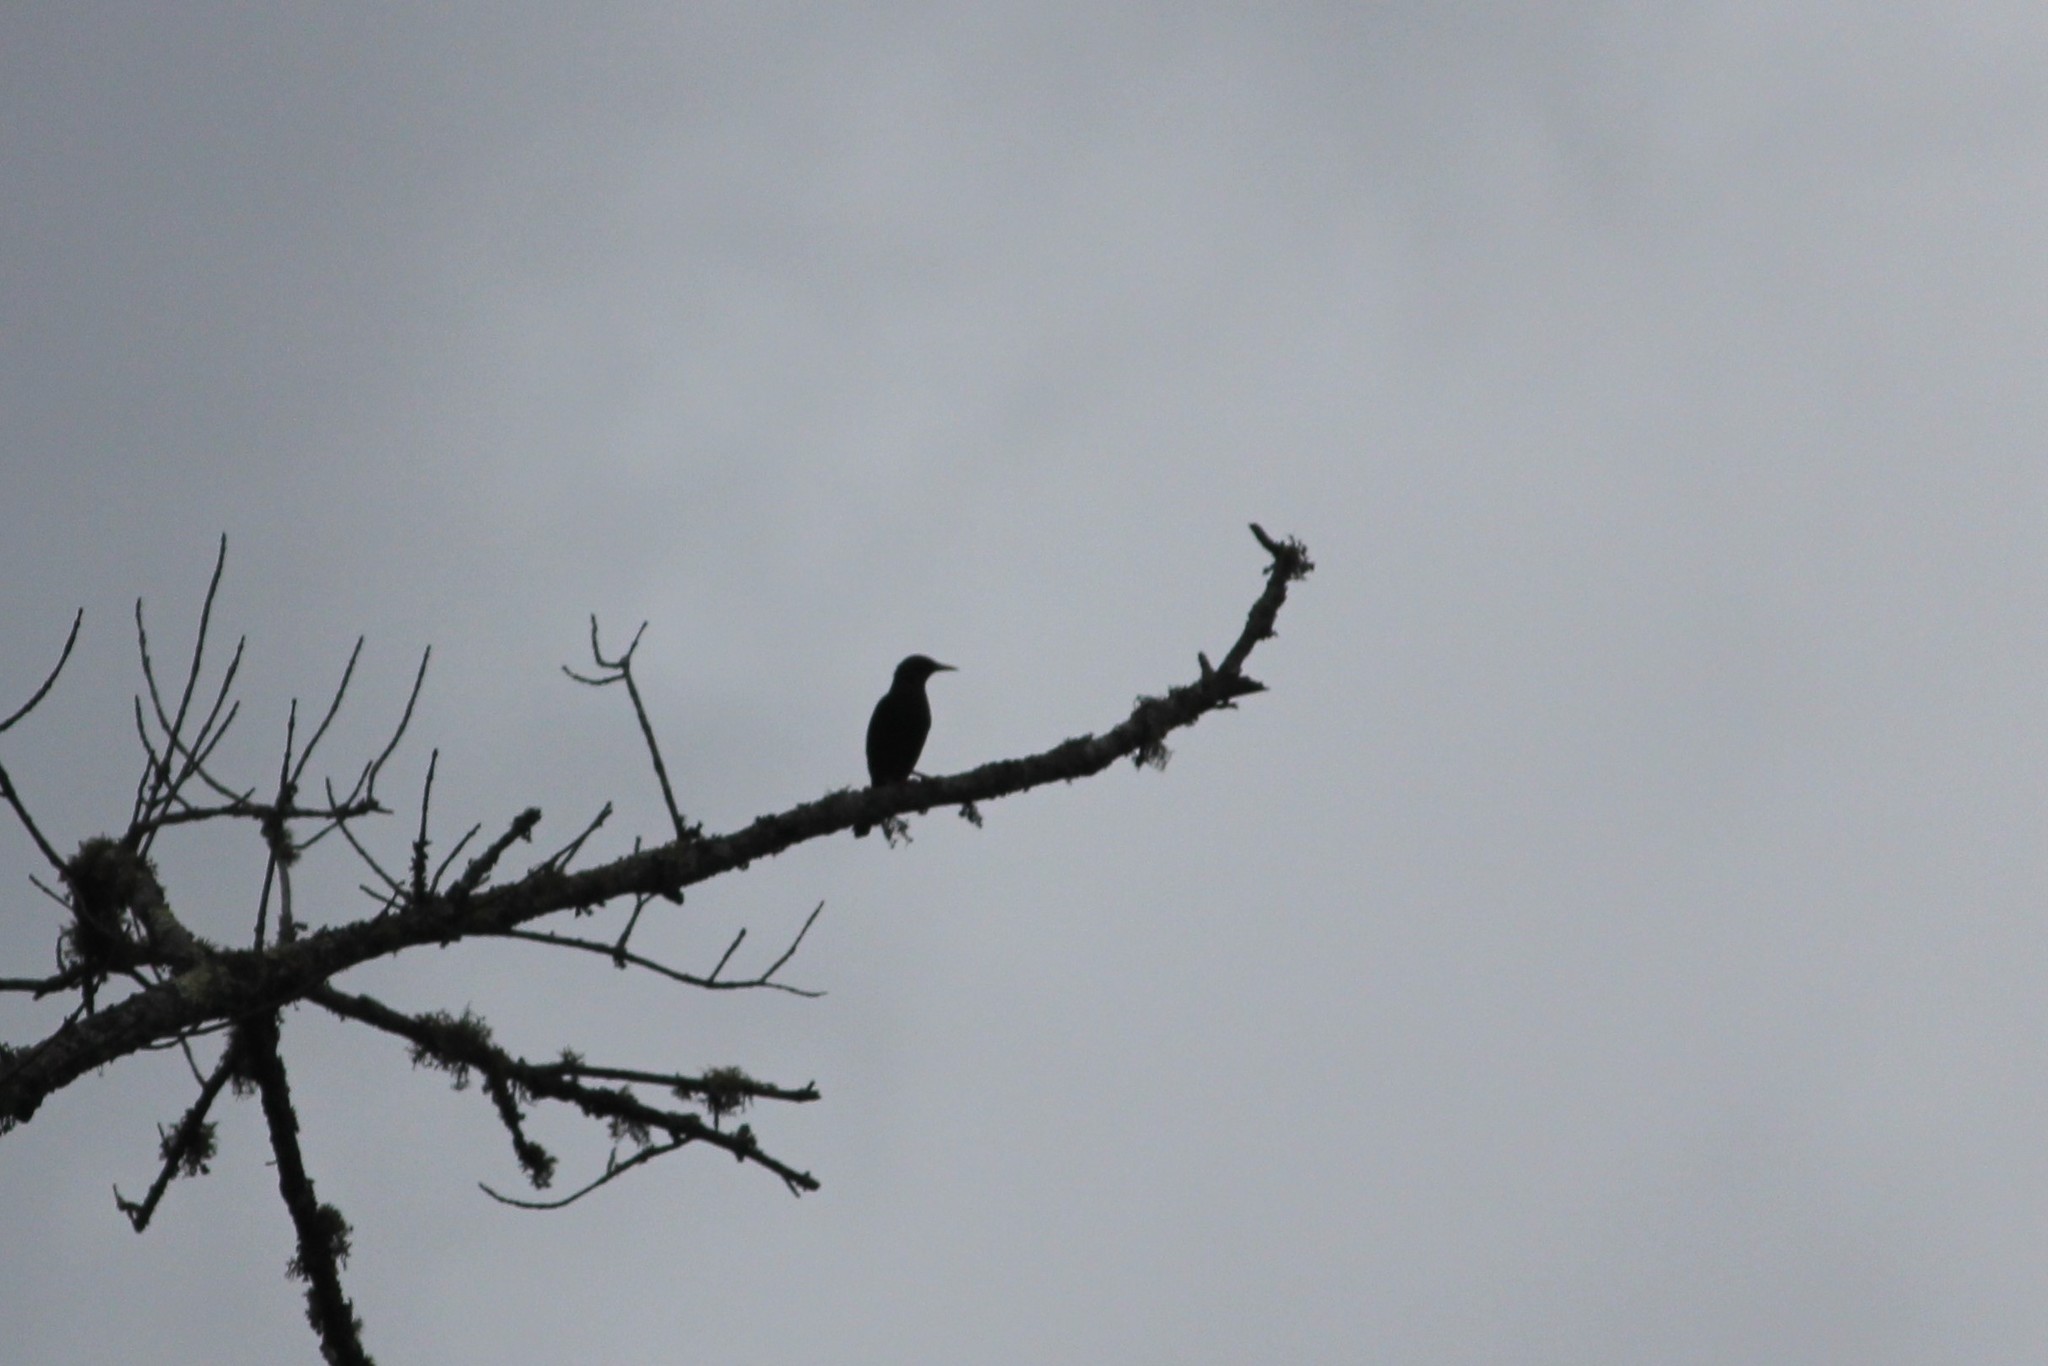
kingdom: Animalia
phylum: Chordata
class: Aves
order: Passeriformes
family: Sturnidae
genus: Sturnus
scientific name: Sturnus vulgaris
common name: Common starling
